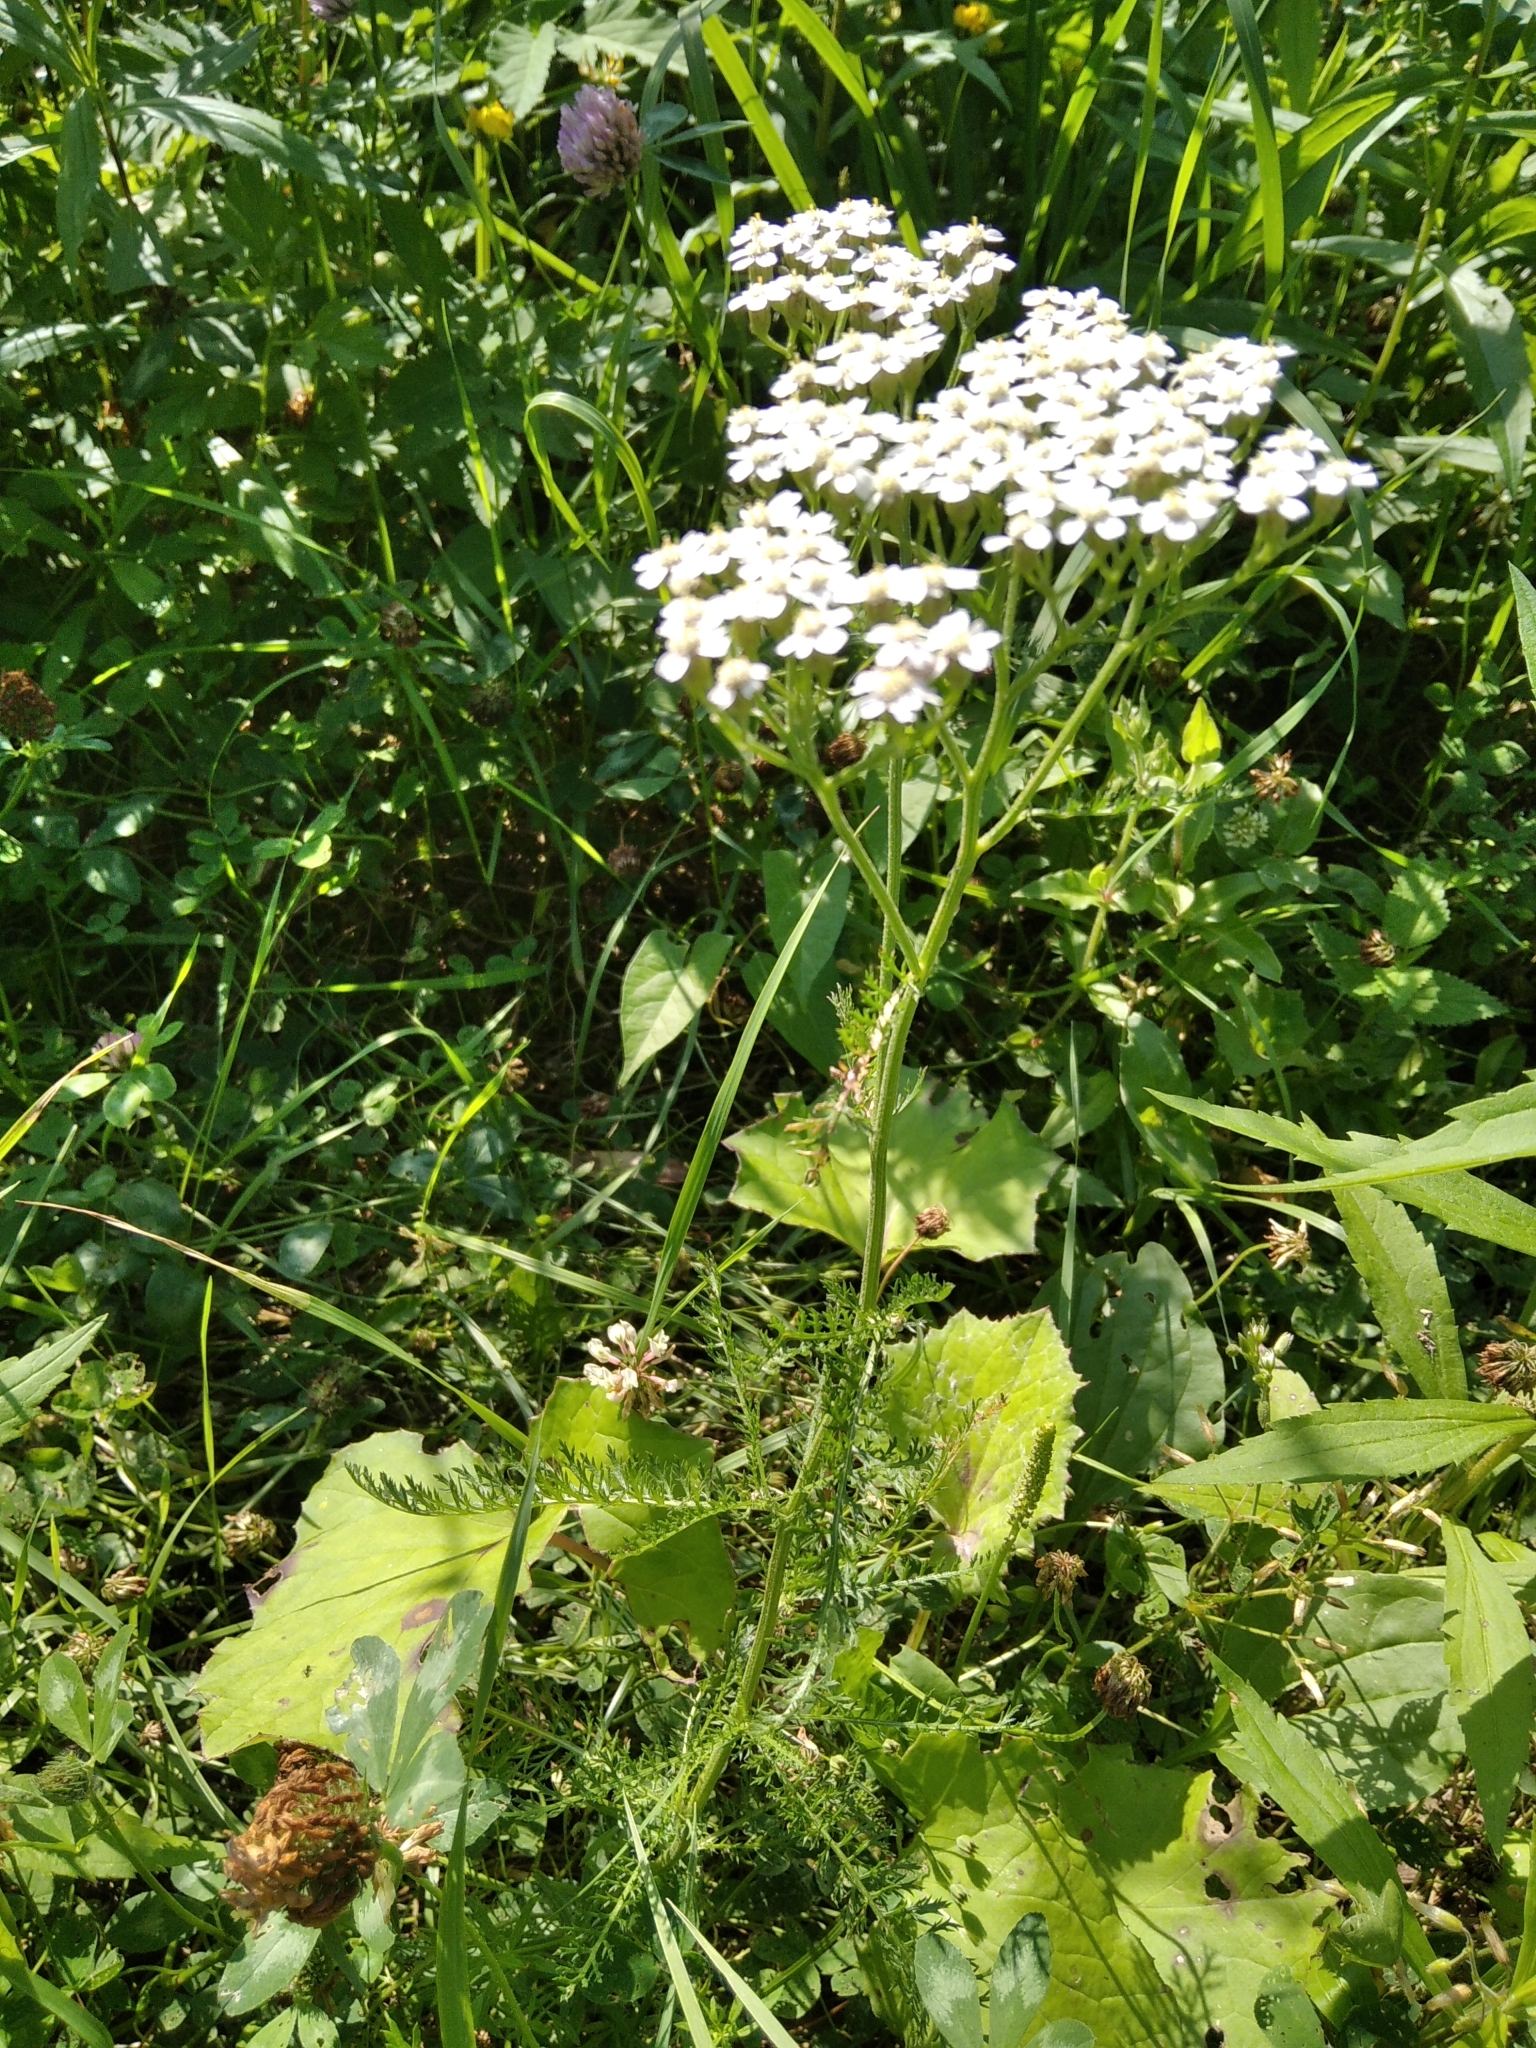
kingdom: Plantae
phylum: Tracheophyta
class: Magnoliopsida
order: Asterales
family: Asteraceae
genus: Achillea
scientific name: Achillea millefolium
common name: Yarrow
